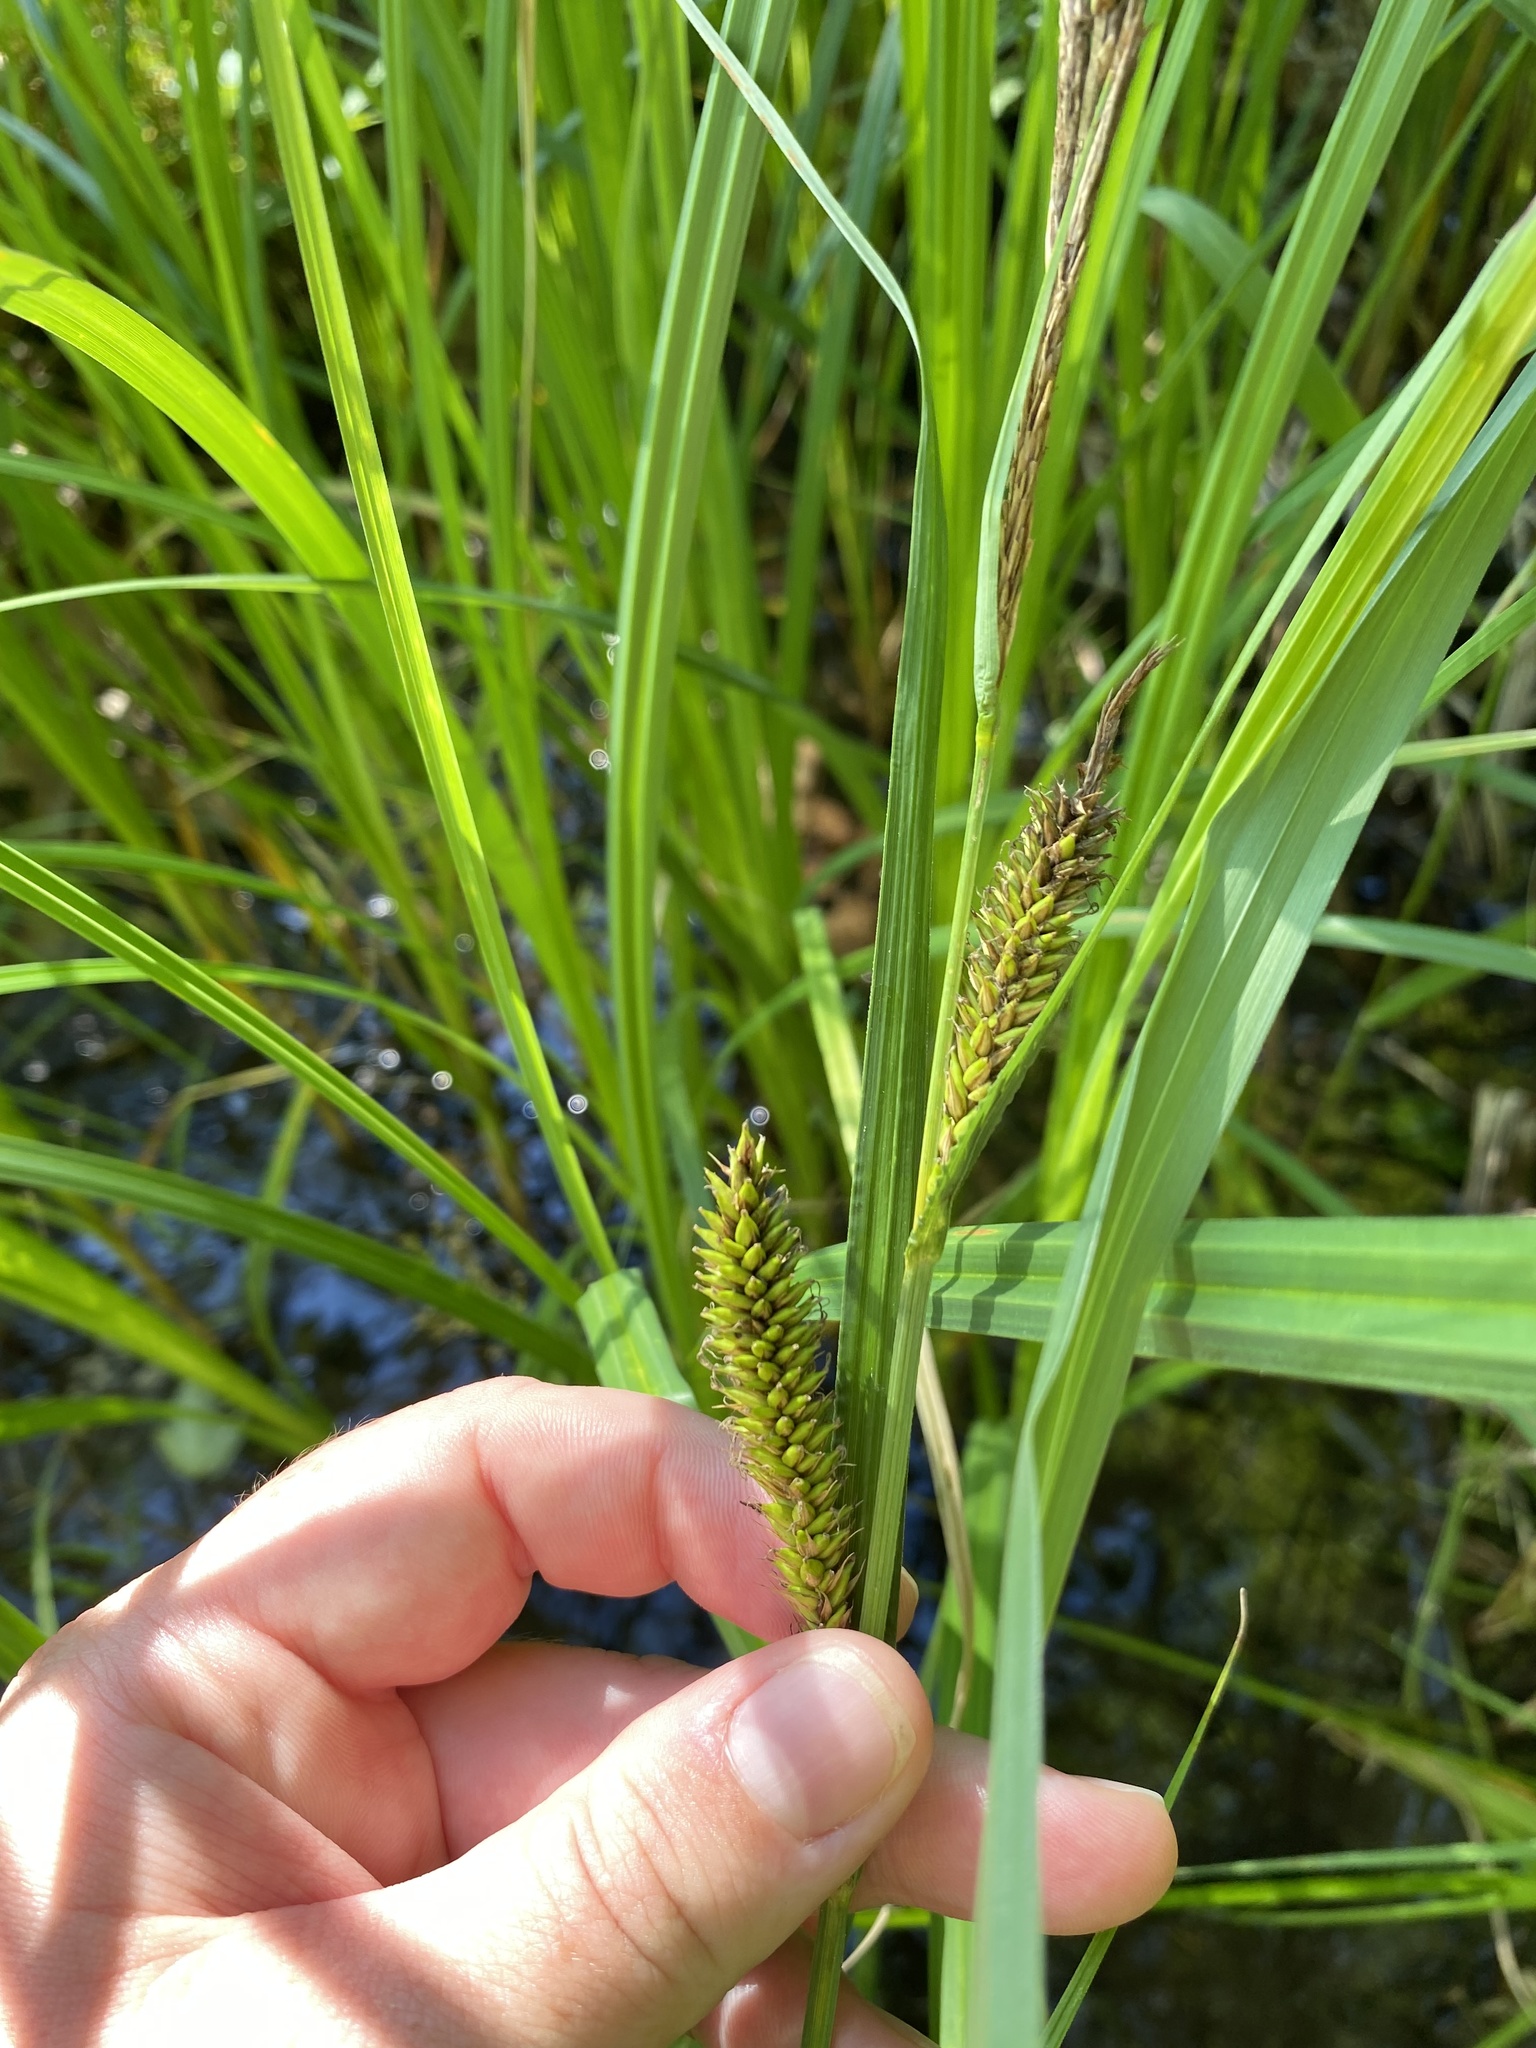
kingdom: Plantae
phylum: Tracheophyta
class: Liliopsida
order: Poales
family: Cyperaceae
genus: Carex
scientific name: Carex lacustris
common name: Common lake sedge
